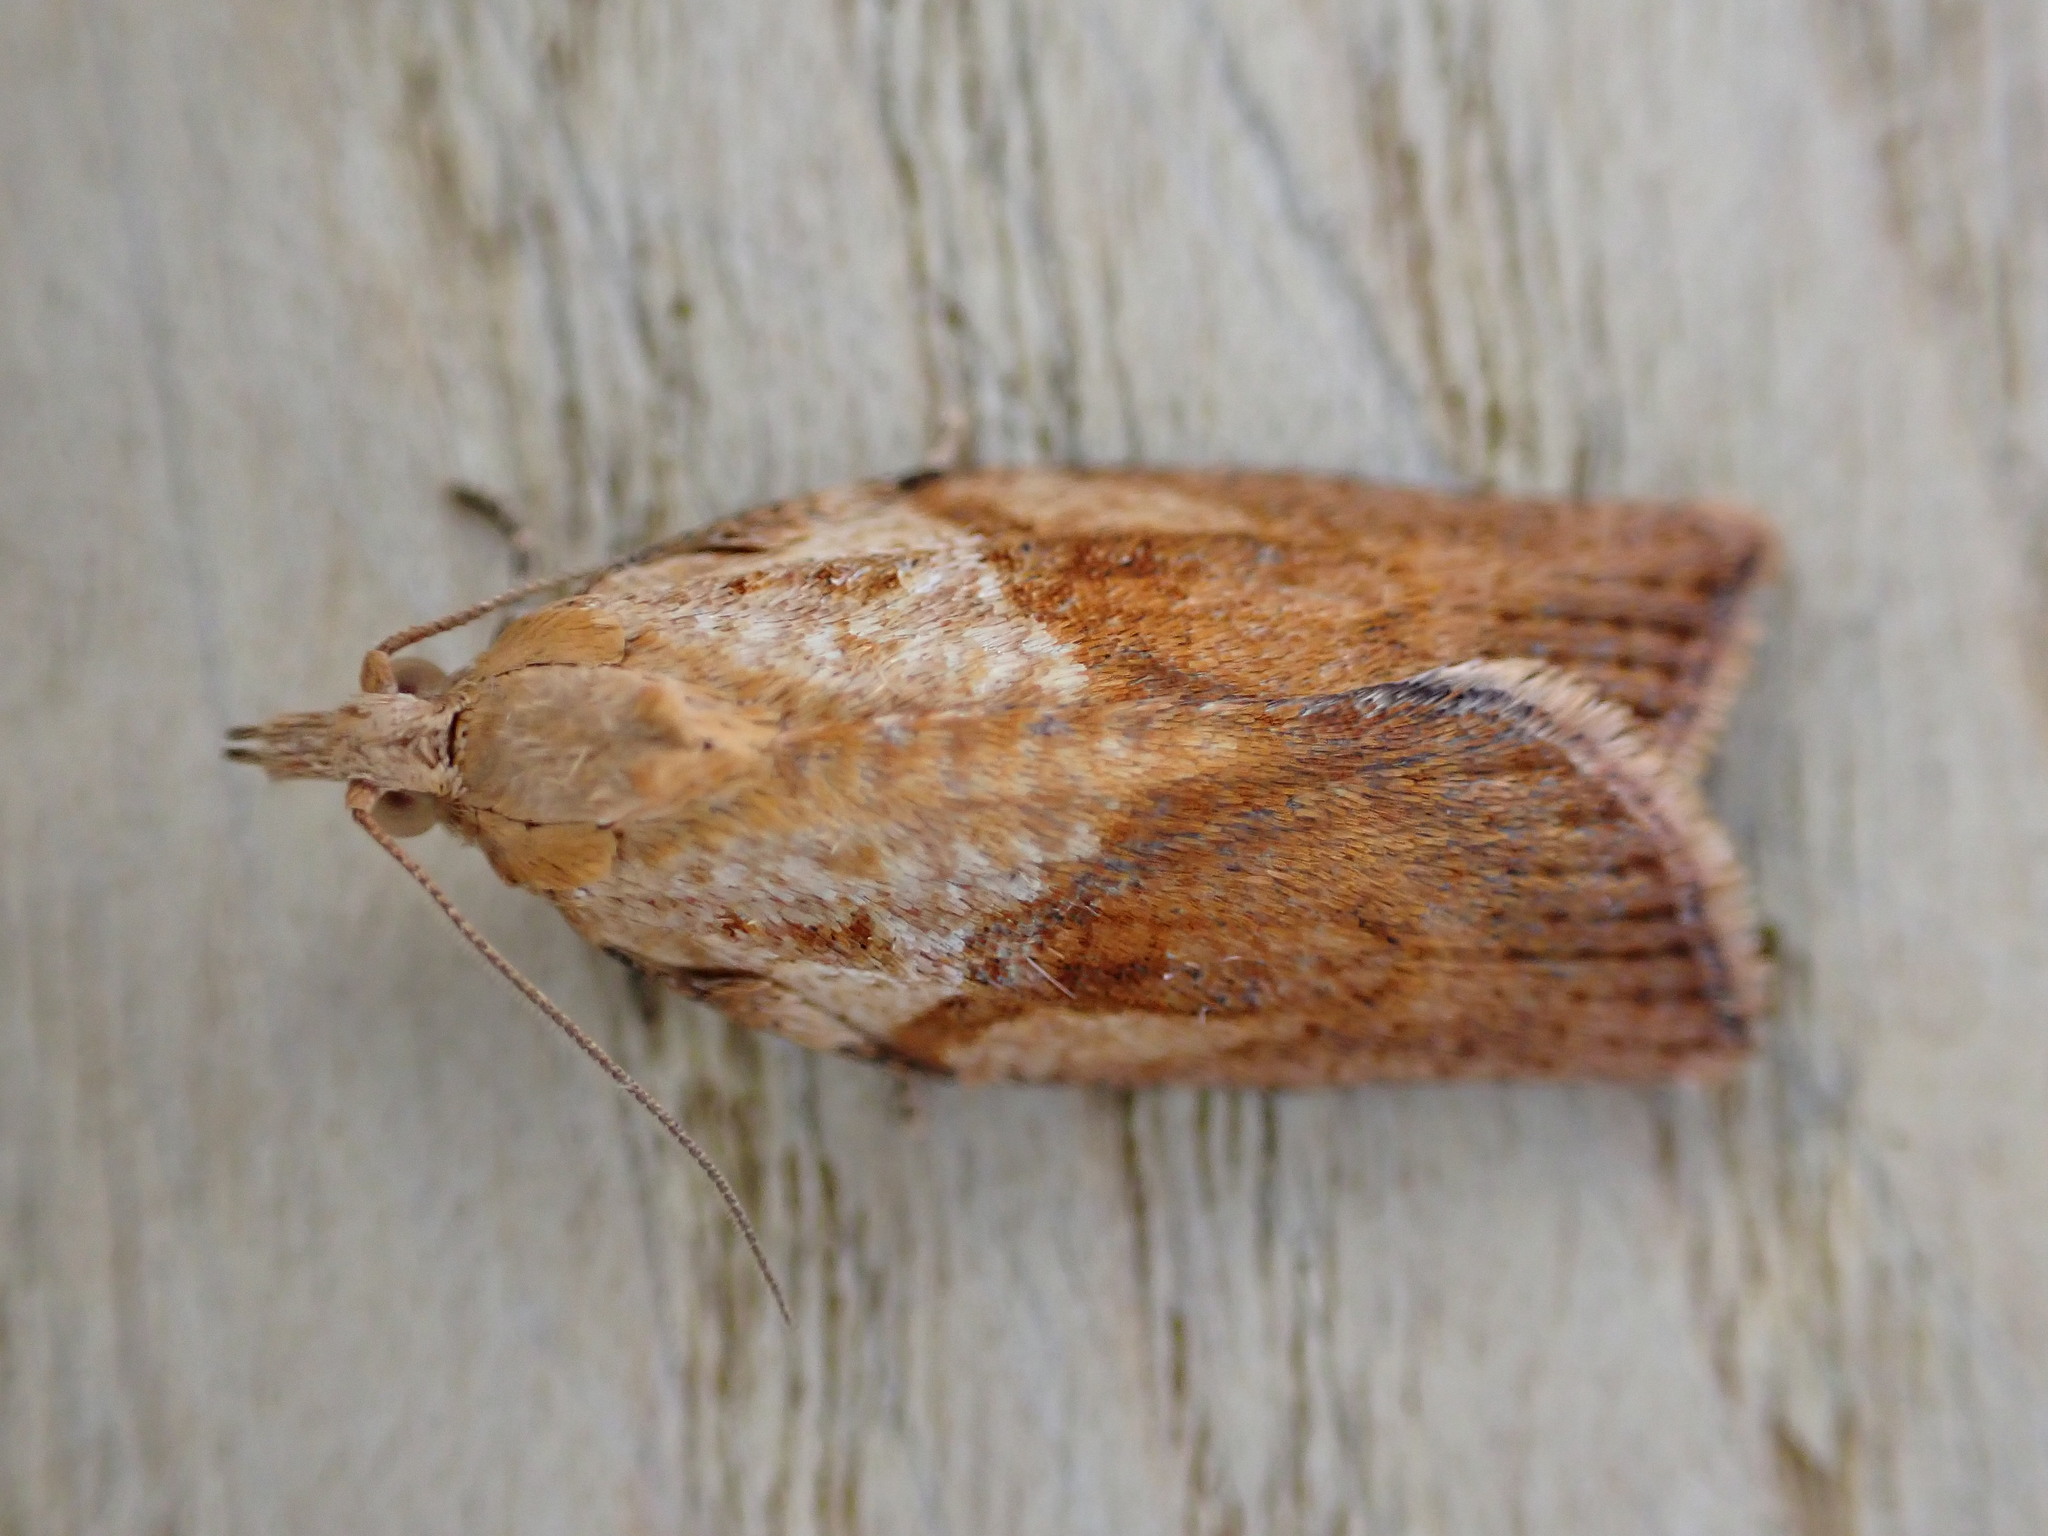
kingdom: Animalia
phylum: Arthropoda
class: Insecta
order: Lepidoptera
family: Tortricidae
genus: Epiphyas
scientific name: Epiphyas postvittana
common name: Light brown apple moth
